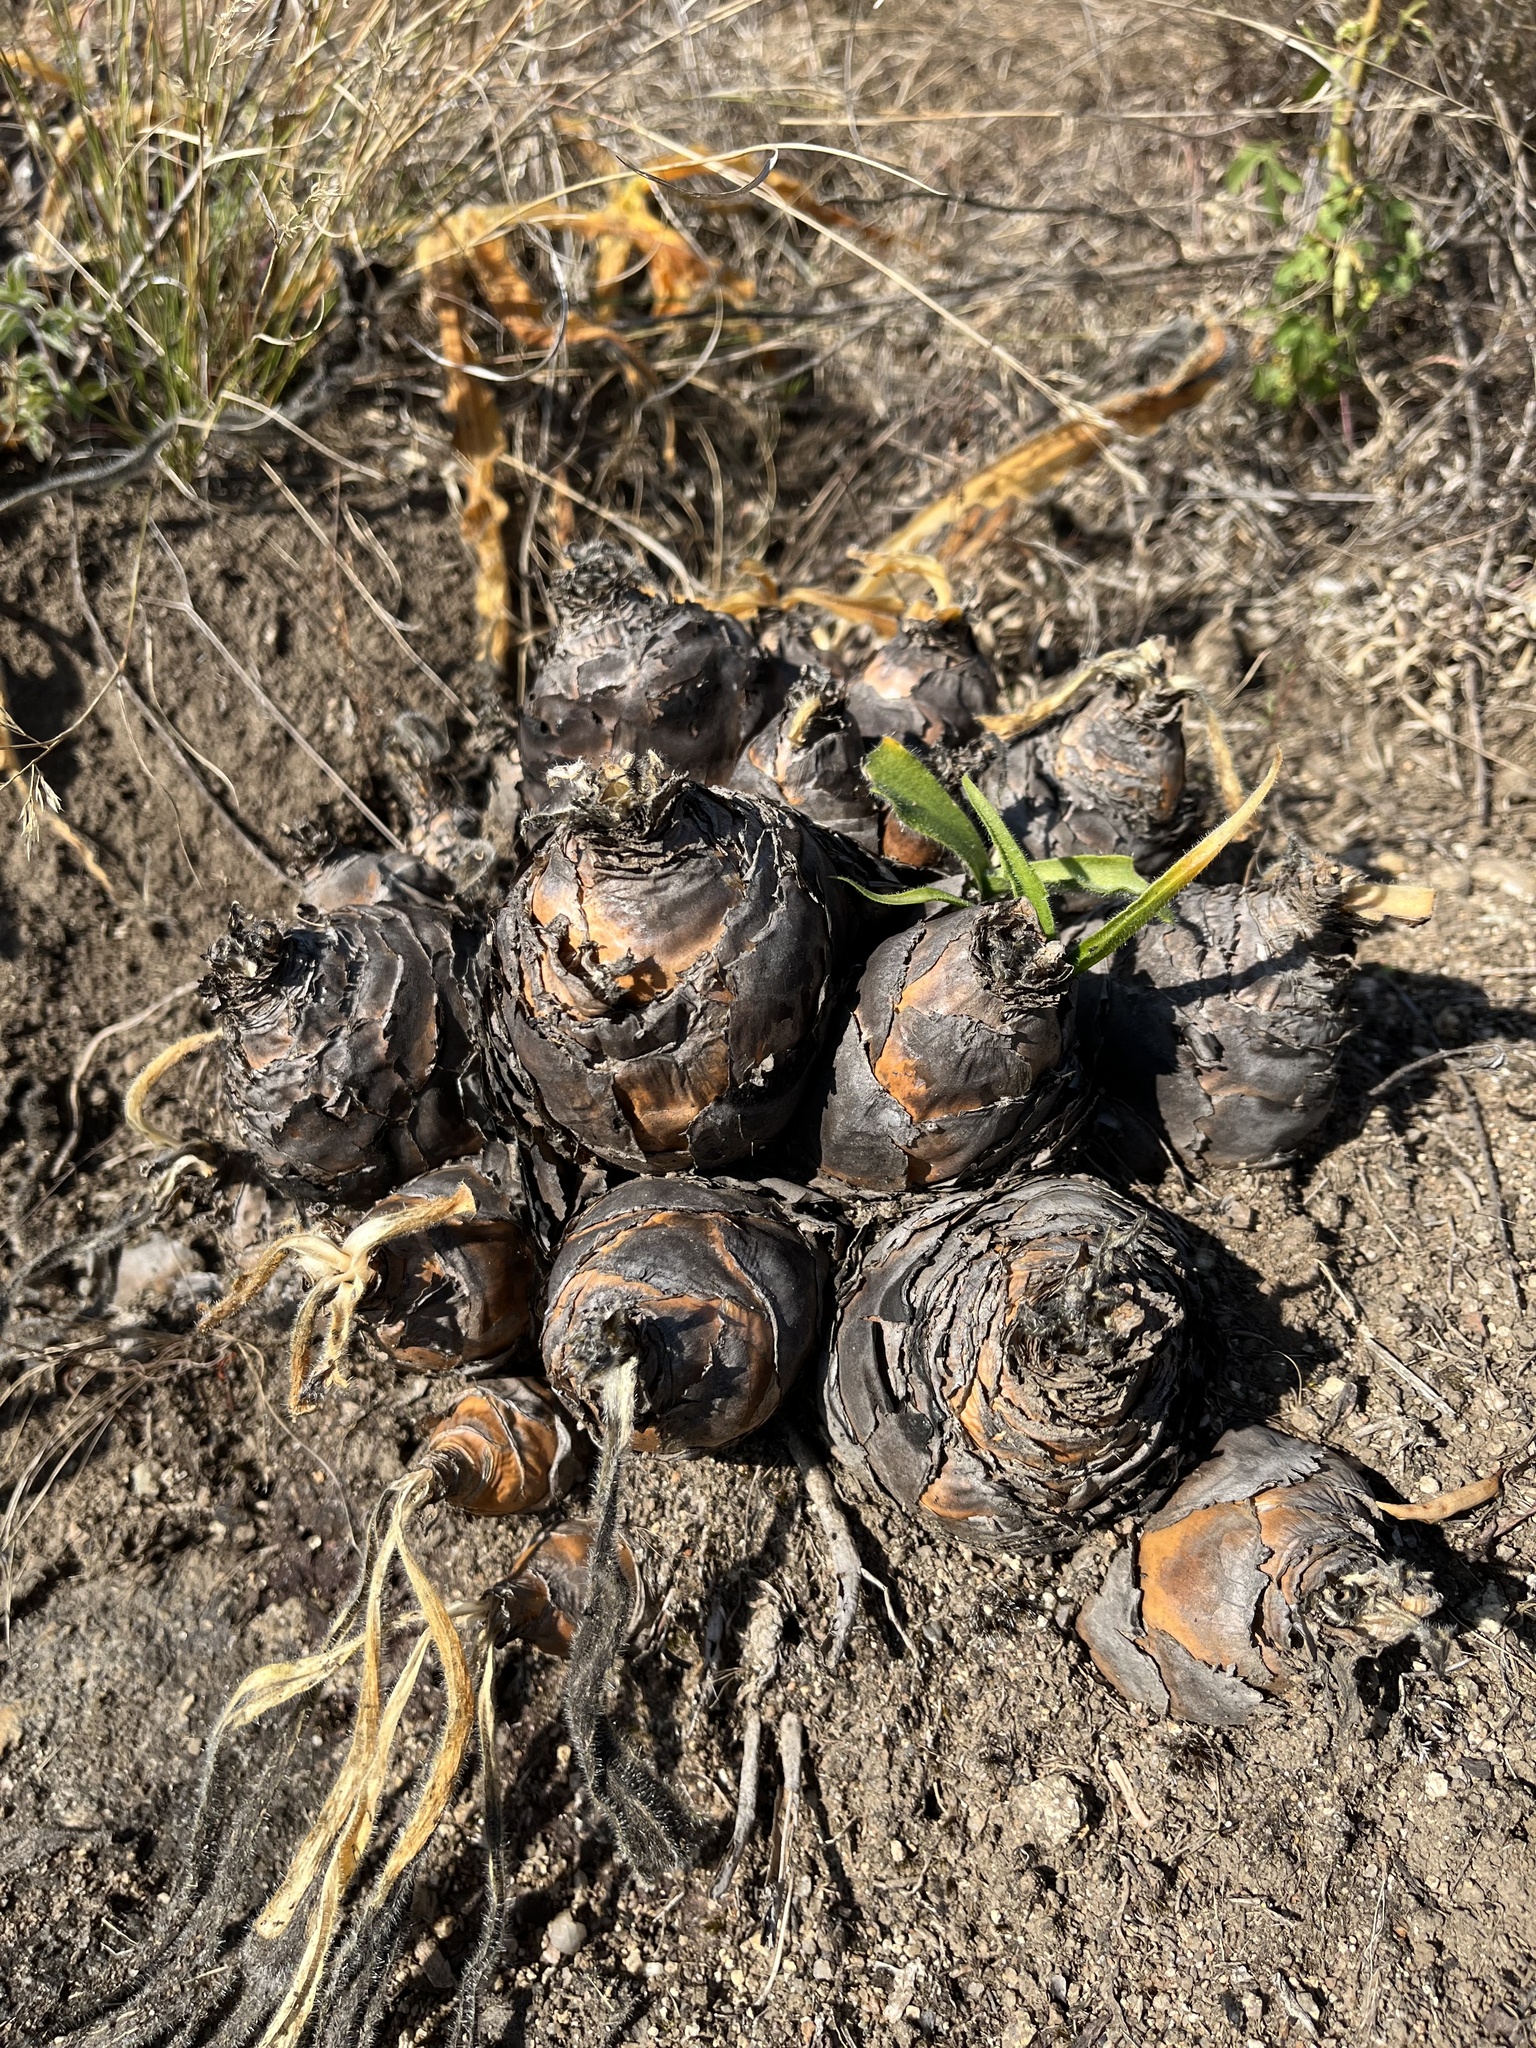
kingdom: Plantae
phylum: Tracheophyta
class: Liliopsida
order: Asparagales
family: Asparagaceae
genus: Merwilla
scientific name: Merwilla plumbea
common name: Blue-squill
